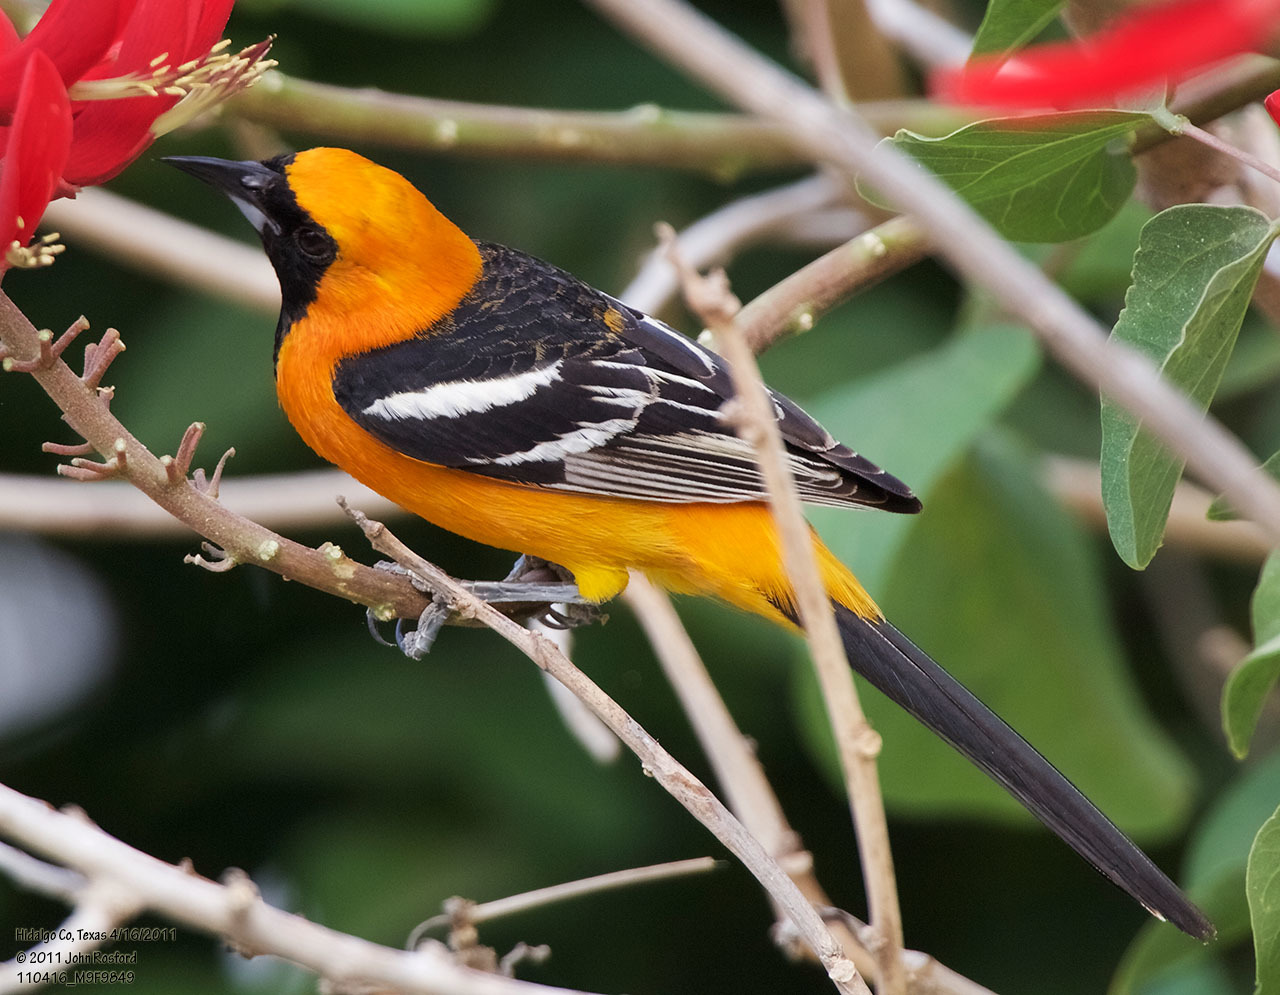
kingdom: Animalia
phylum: Chordata
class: Aves
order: Passeriformes
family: Icteridae
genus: Icterus
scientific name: Icterus cucullatus
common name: Hooded oriole
